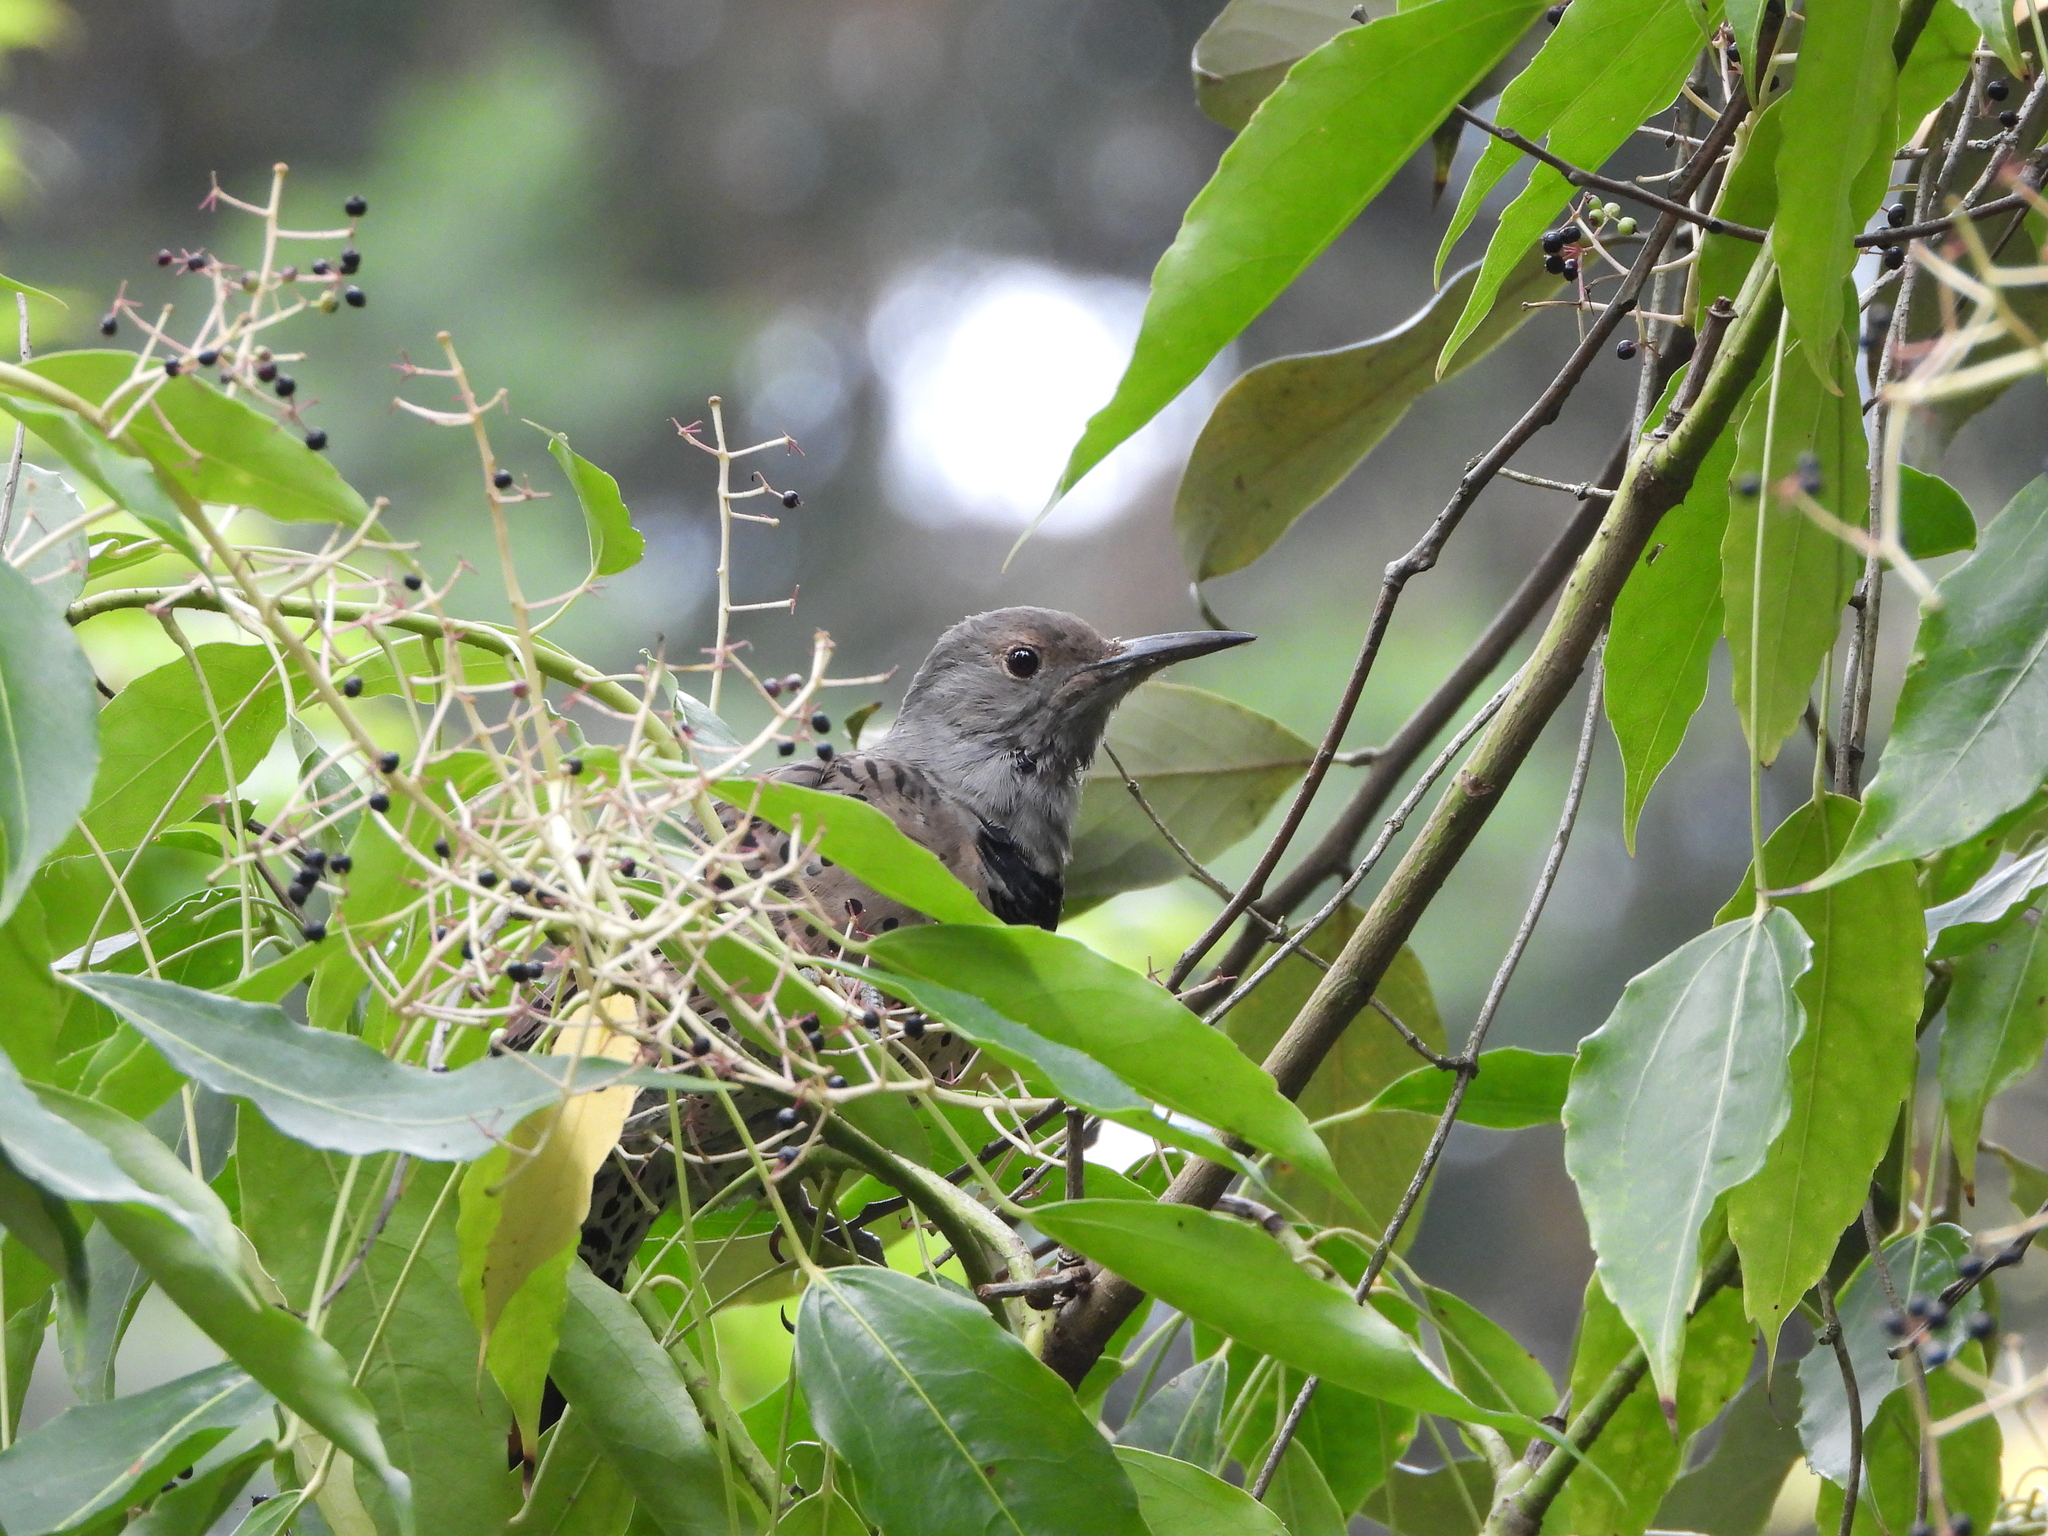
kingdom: Animalia
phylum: Chordata
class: Aves
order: Piciformes
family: Picidae
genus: Colaptes
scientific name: Colaptes auratus
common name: Northern flicker
